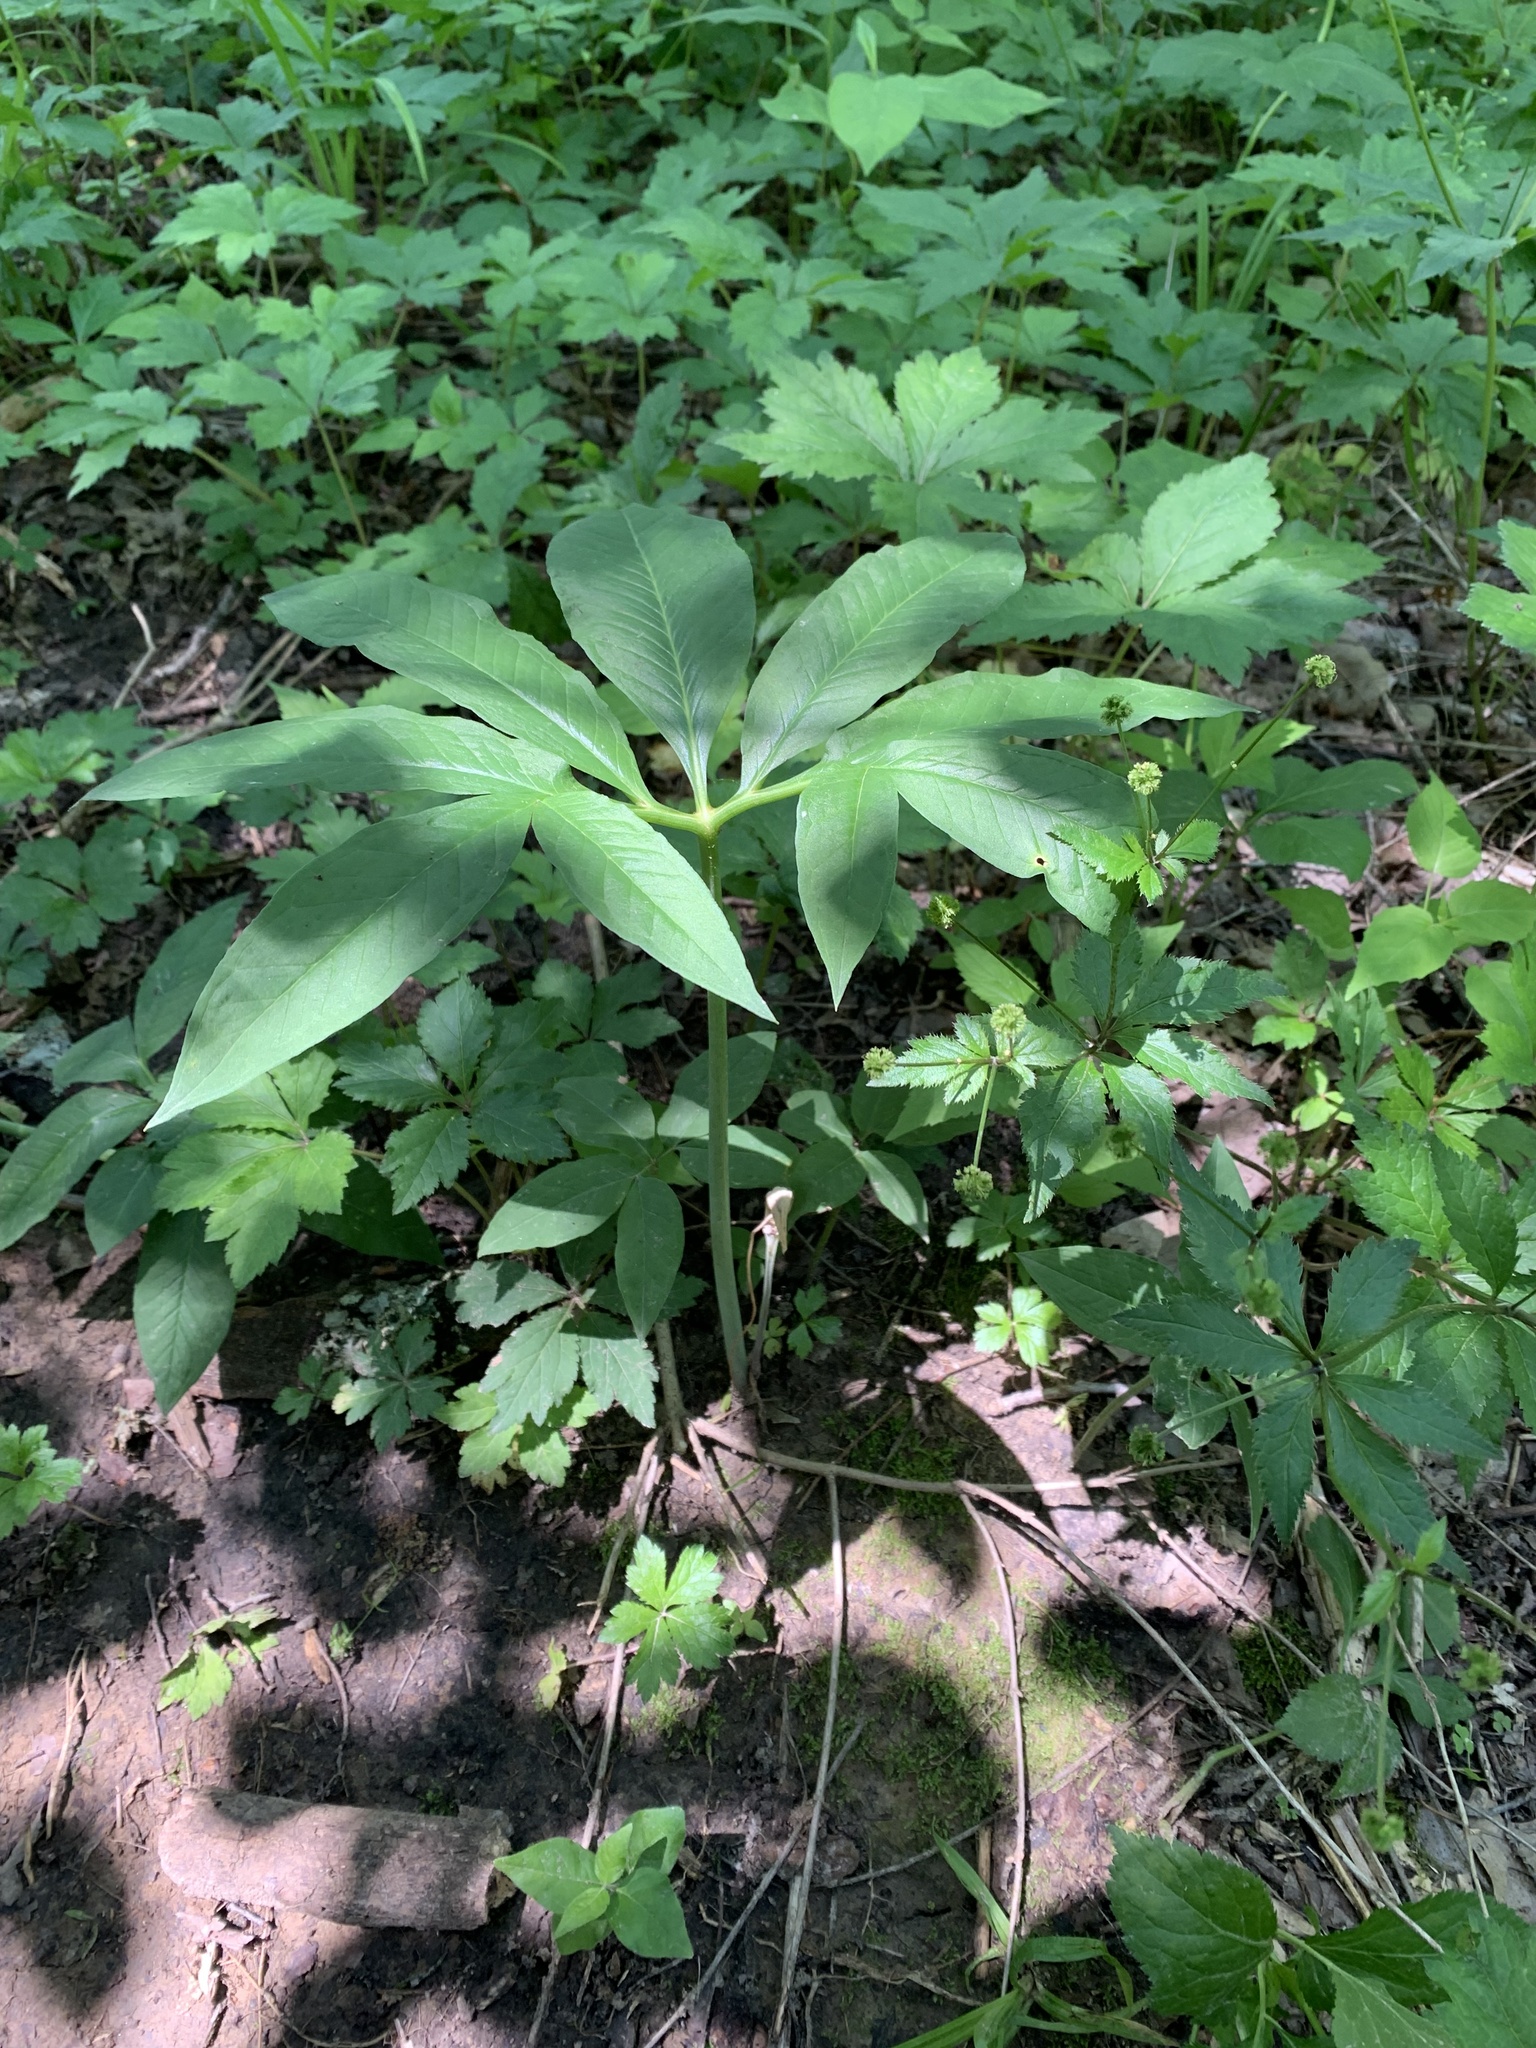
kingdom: Plantae
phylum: Tracheophyta
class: Liliopsida
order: Alismatales
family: Araceae
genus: Arisaema
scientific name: Arisaema dracontium
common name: Dragon-arum
